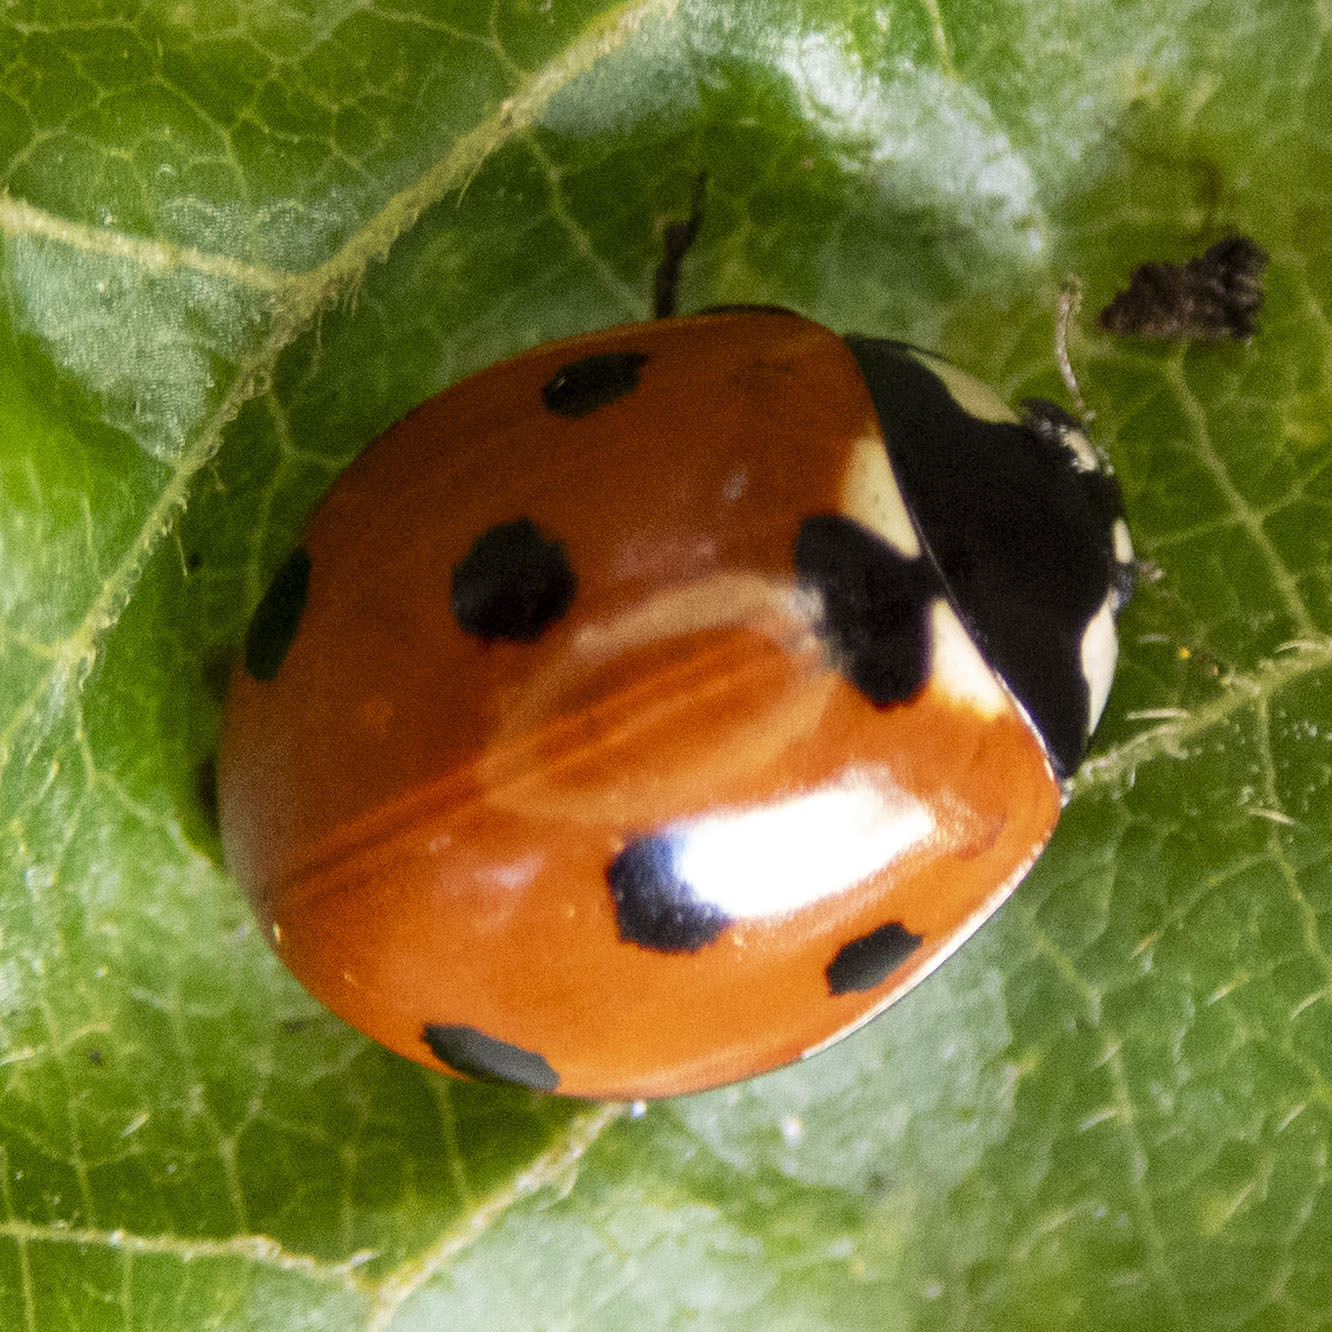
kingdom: Animalia
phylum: Arthropoda
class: Insecta
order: Coleoptera
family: Coccinellidae
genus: Coccinella
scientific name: Coccinella septempunctata
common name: Sevenspotted lady beetle
